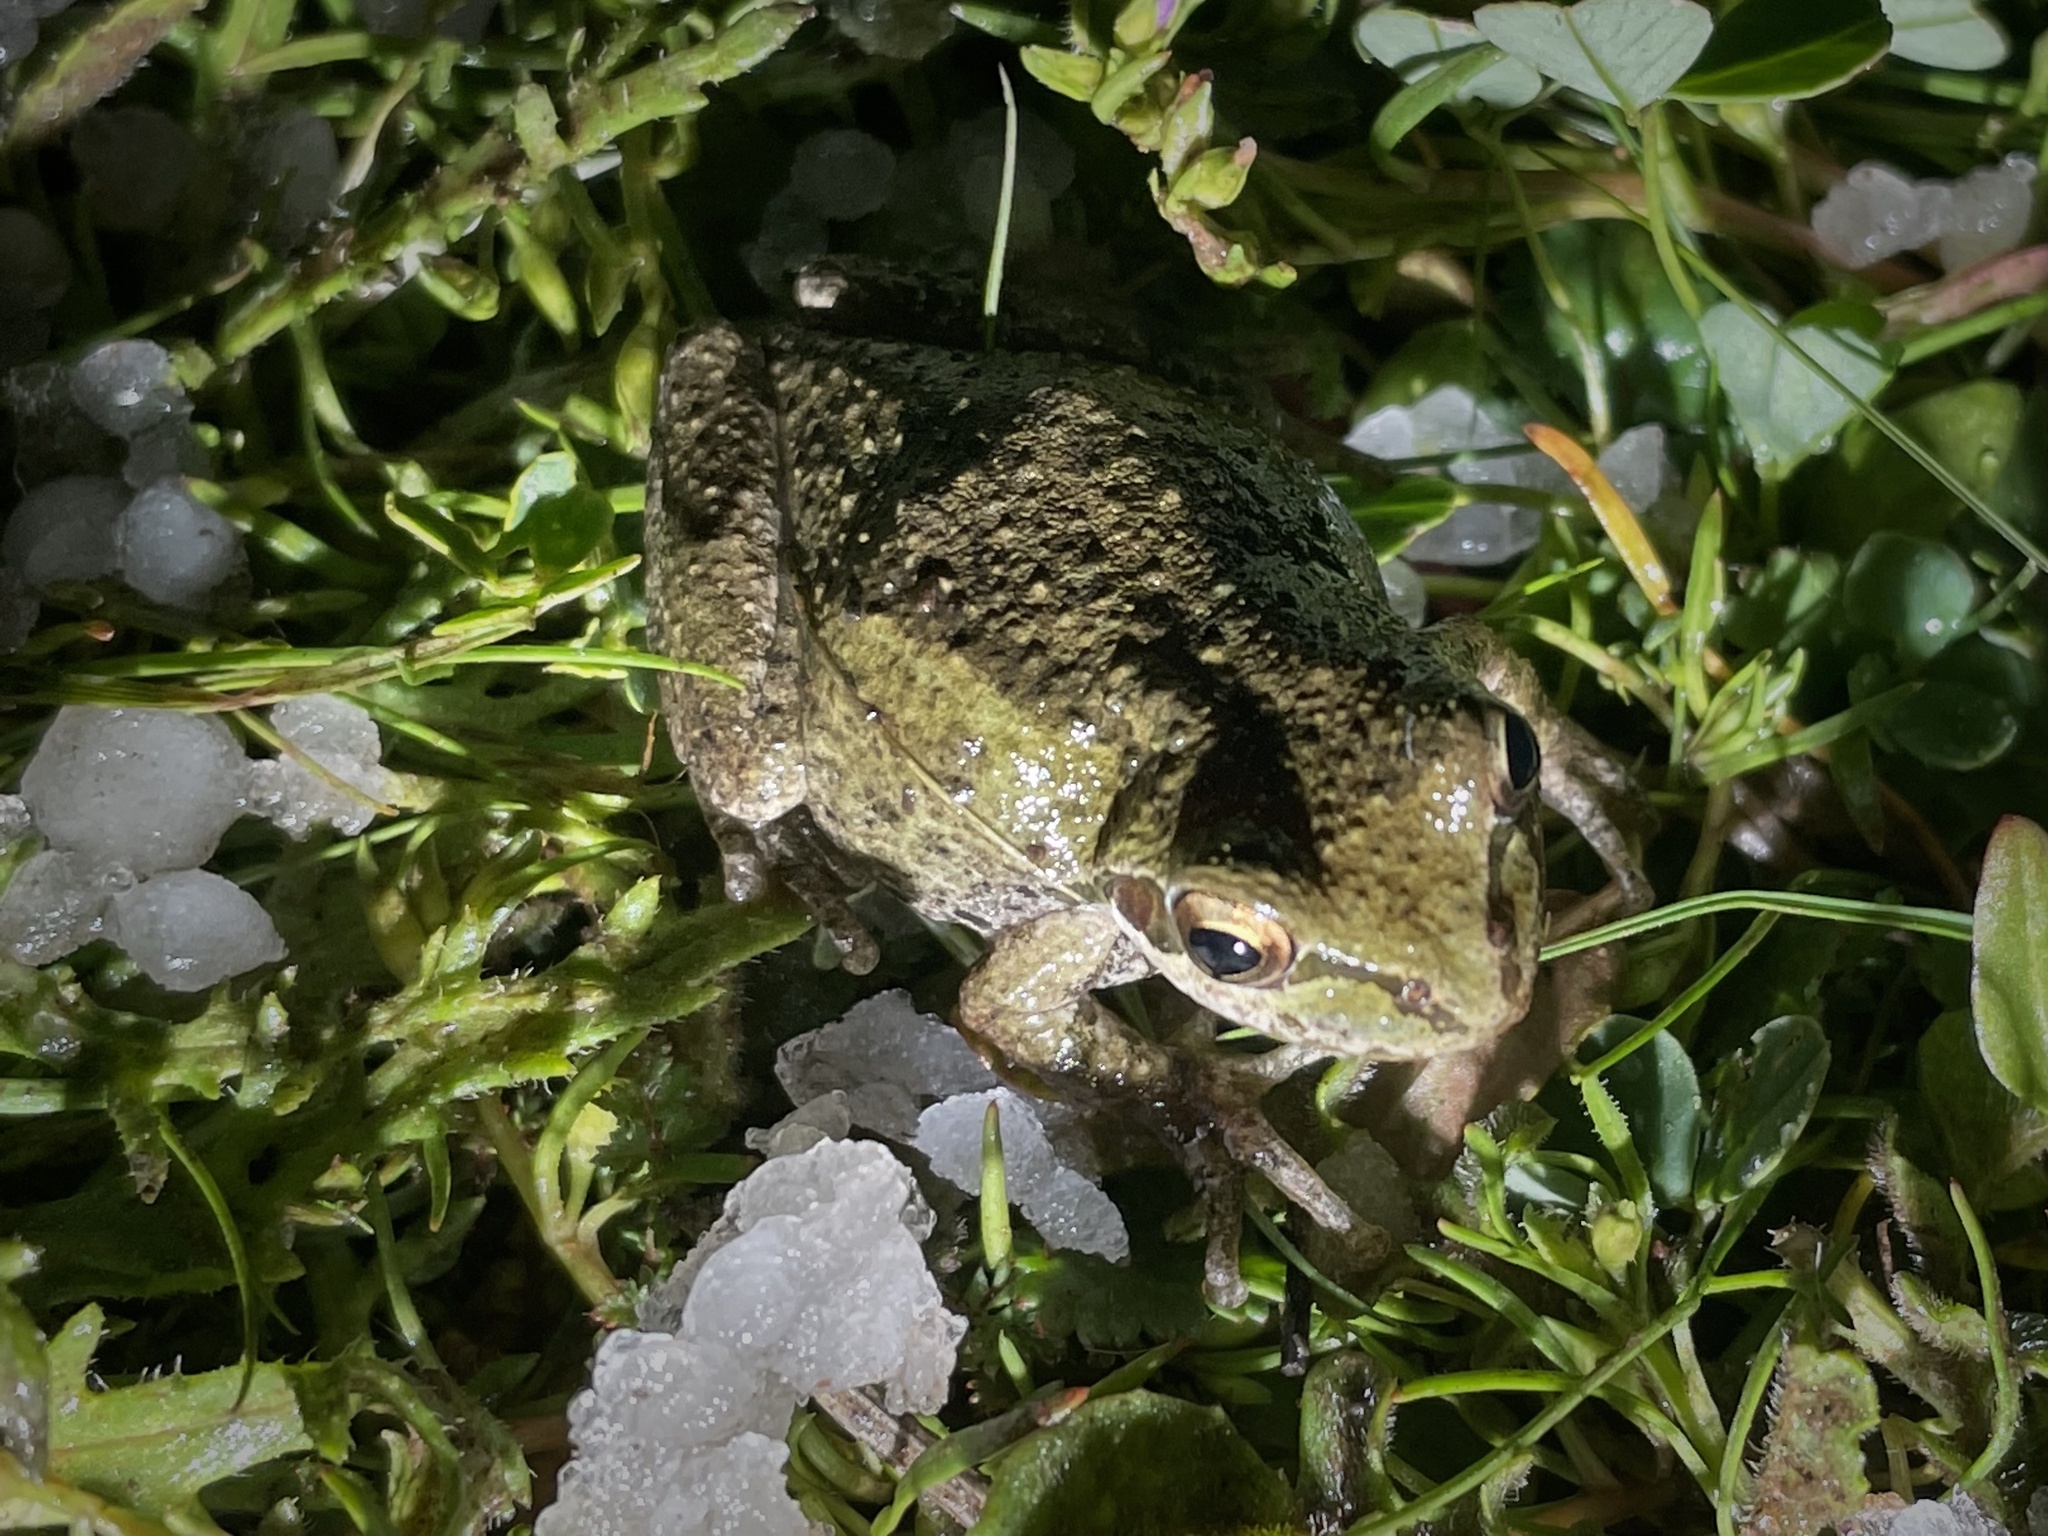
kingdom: Animalia
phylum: Chordata
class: Amphibia
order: Anura
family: Hylidae
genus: Pseudacris
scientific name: Pseudacris regilla
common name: Pacific chorus frog
